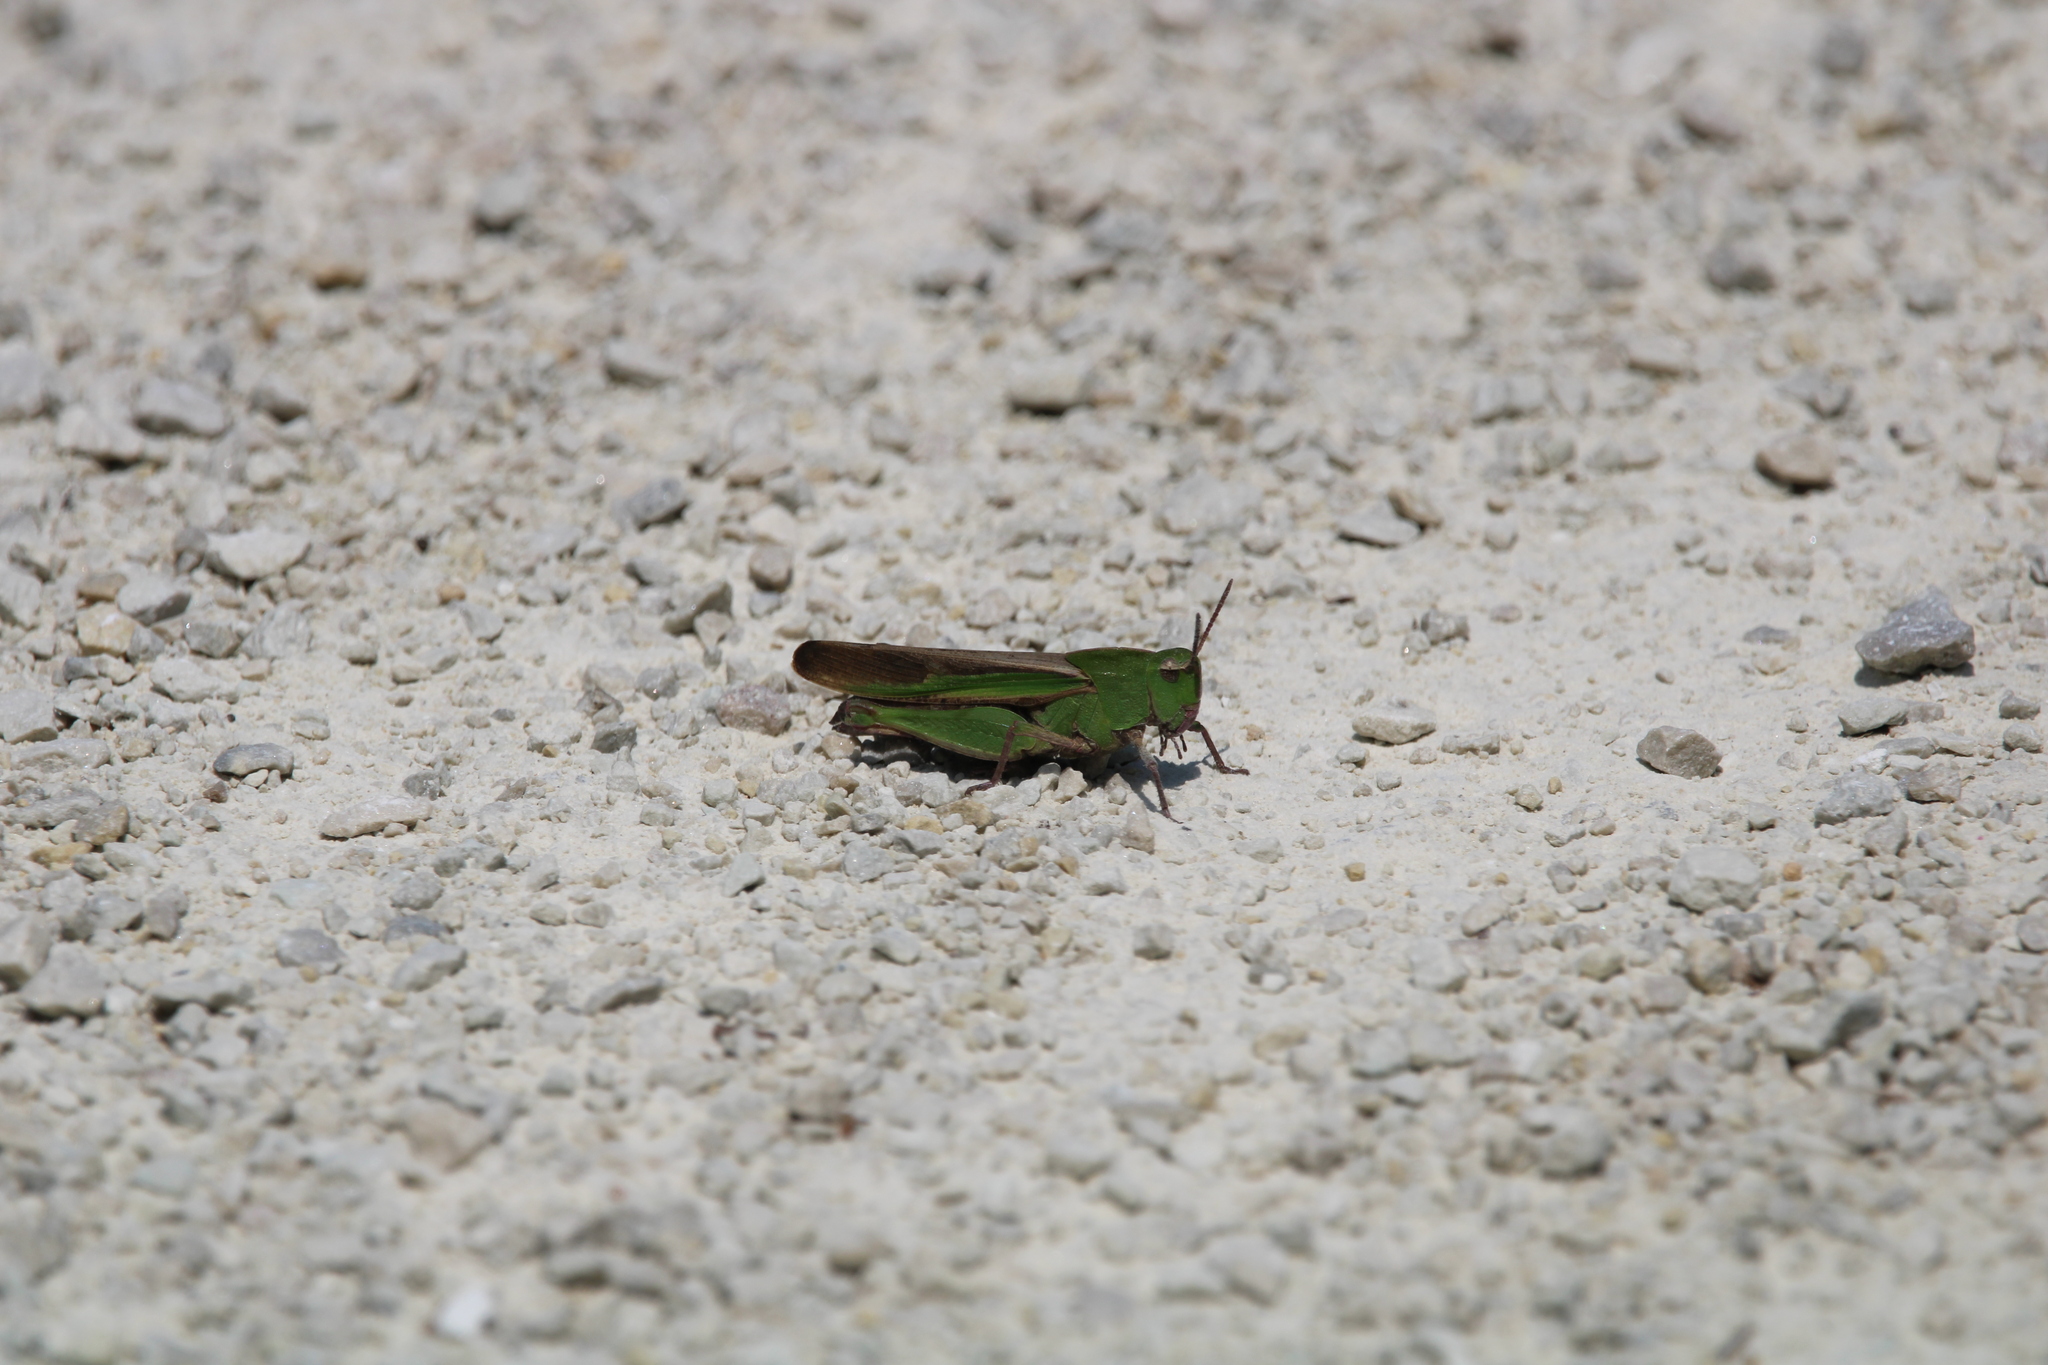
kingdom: Animalia
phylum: Arthropoda
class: Insecta
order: Orthoptera
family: Acrididae
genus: Chortophaga
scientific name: Chortophaga viridifasciata
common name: Green-striped grasshopper
